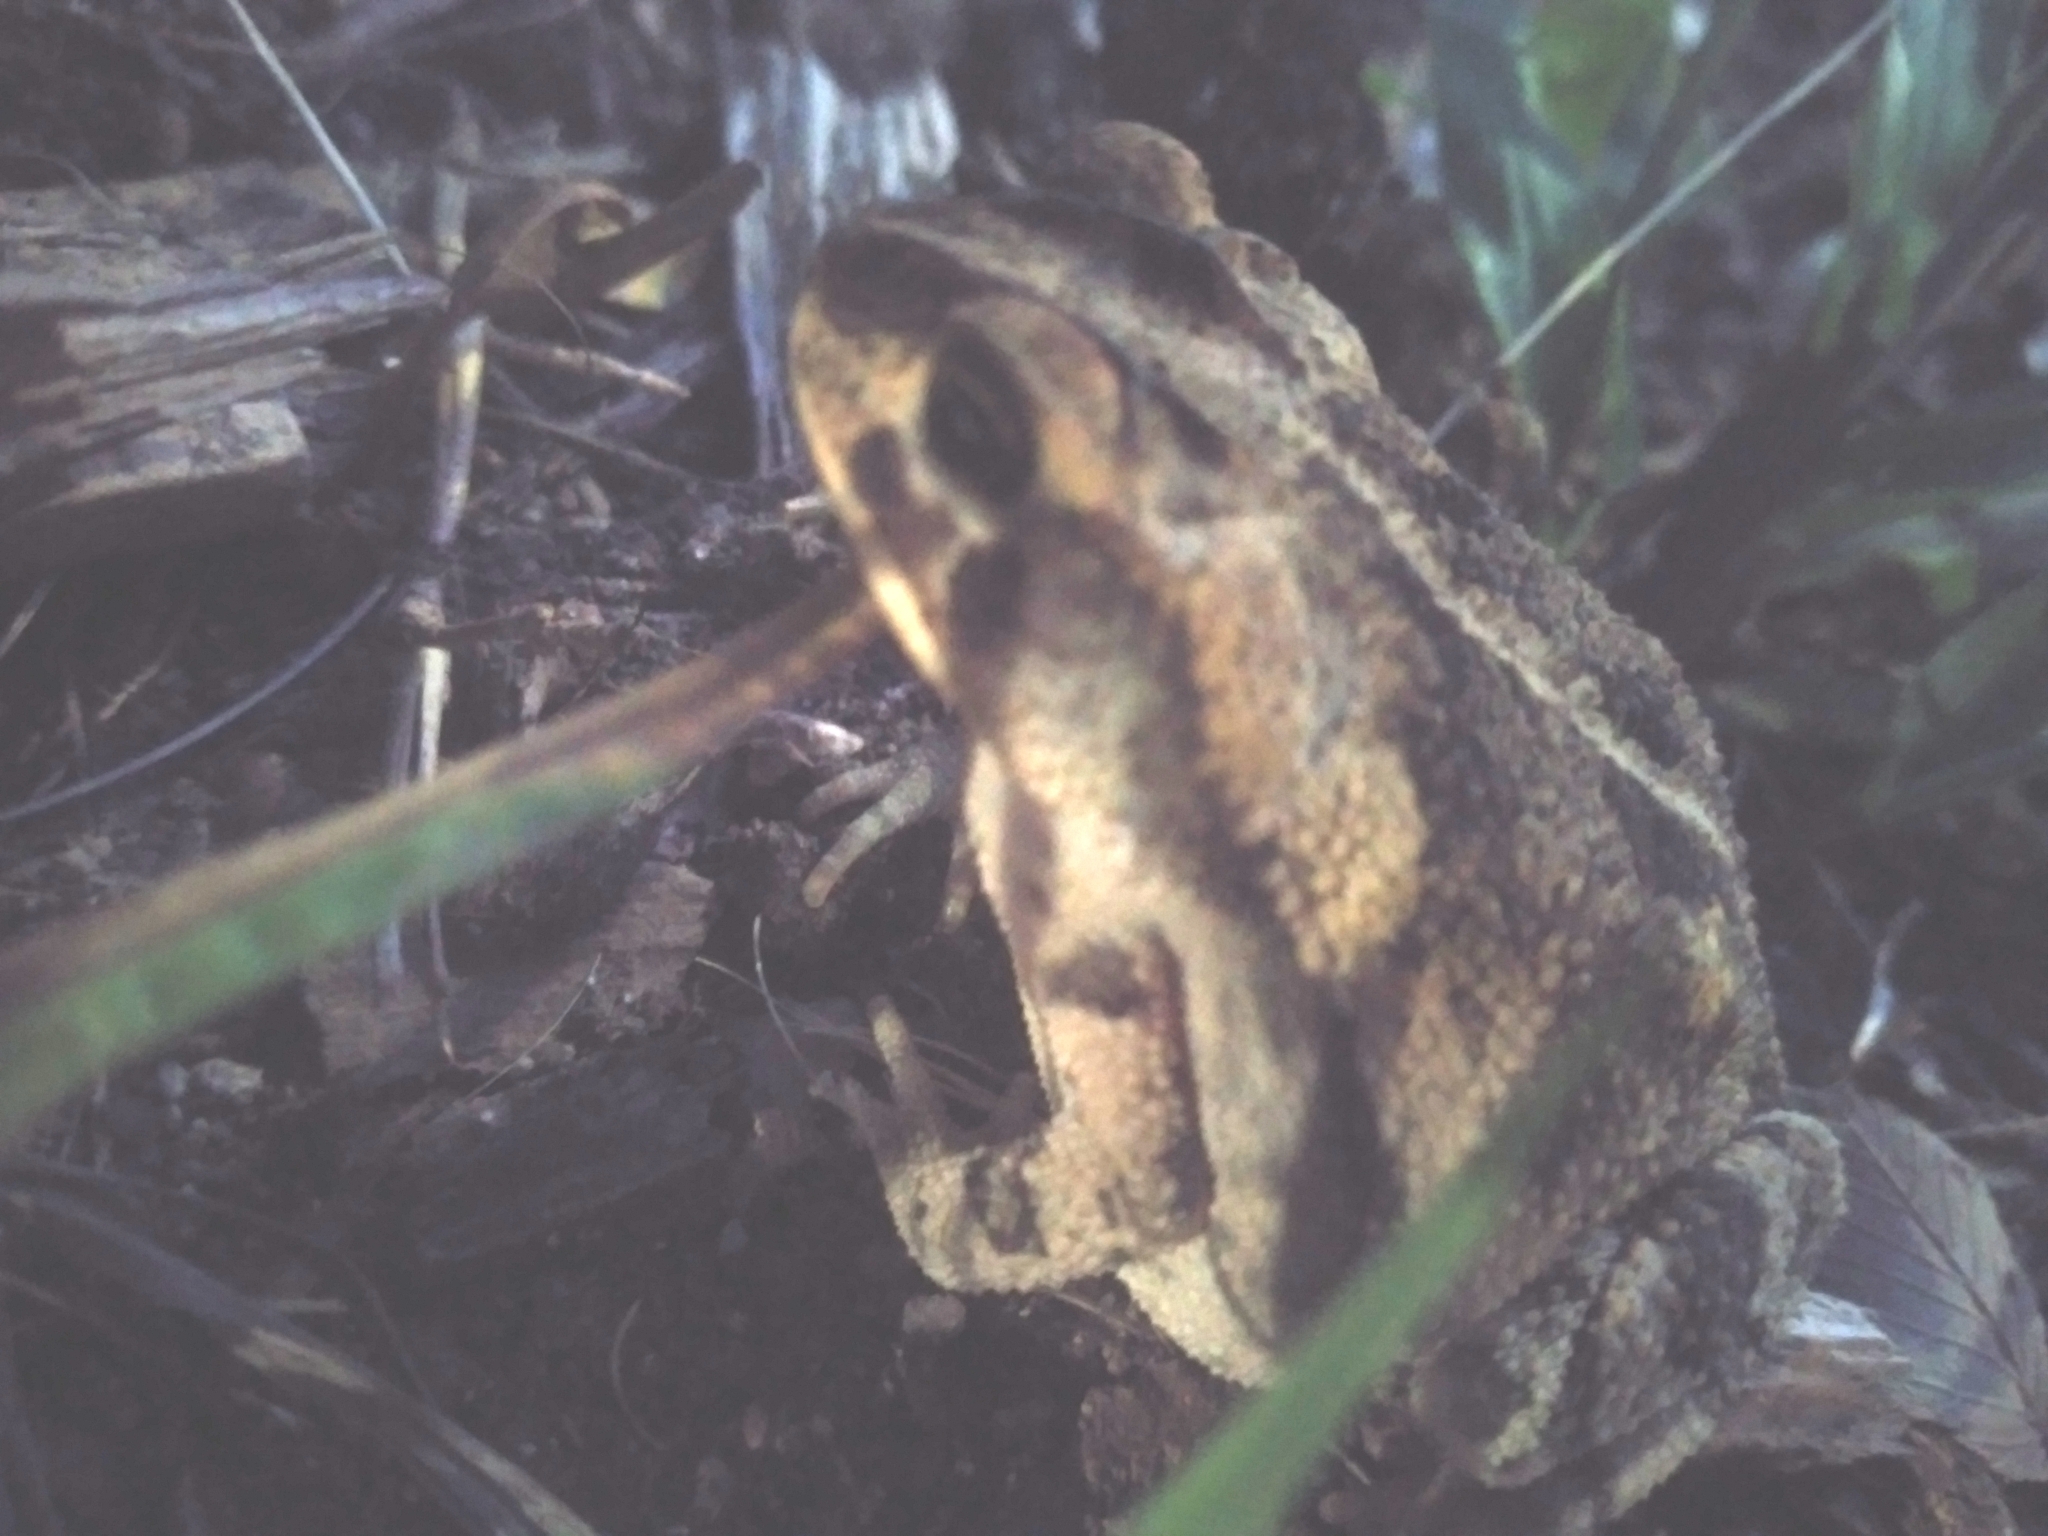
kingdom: Animalia
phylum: Chordata
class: Amphibia
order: Anura
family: Bufonidae
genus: Incilius
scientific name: Incilius nebulifer
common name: Gulf coast toad
